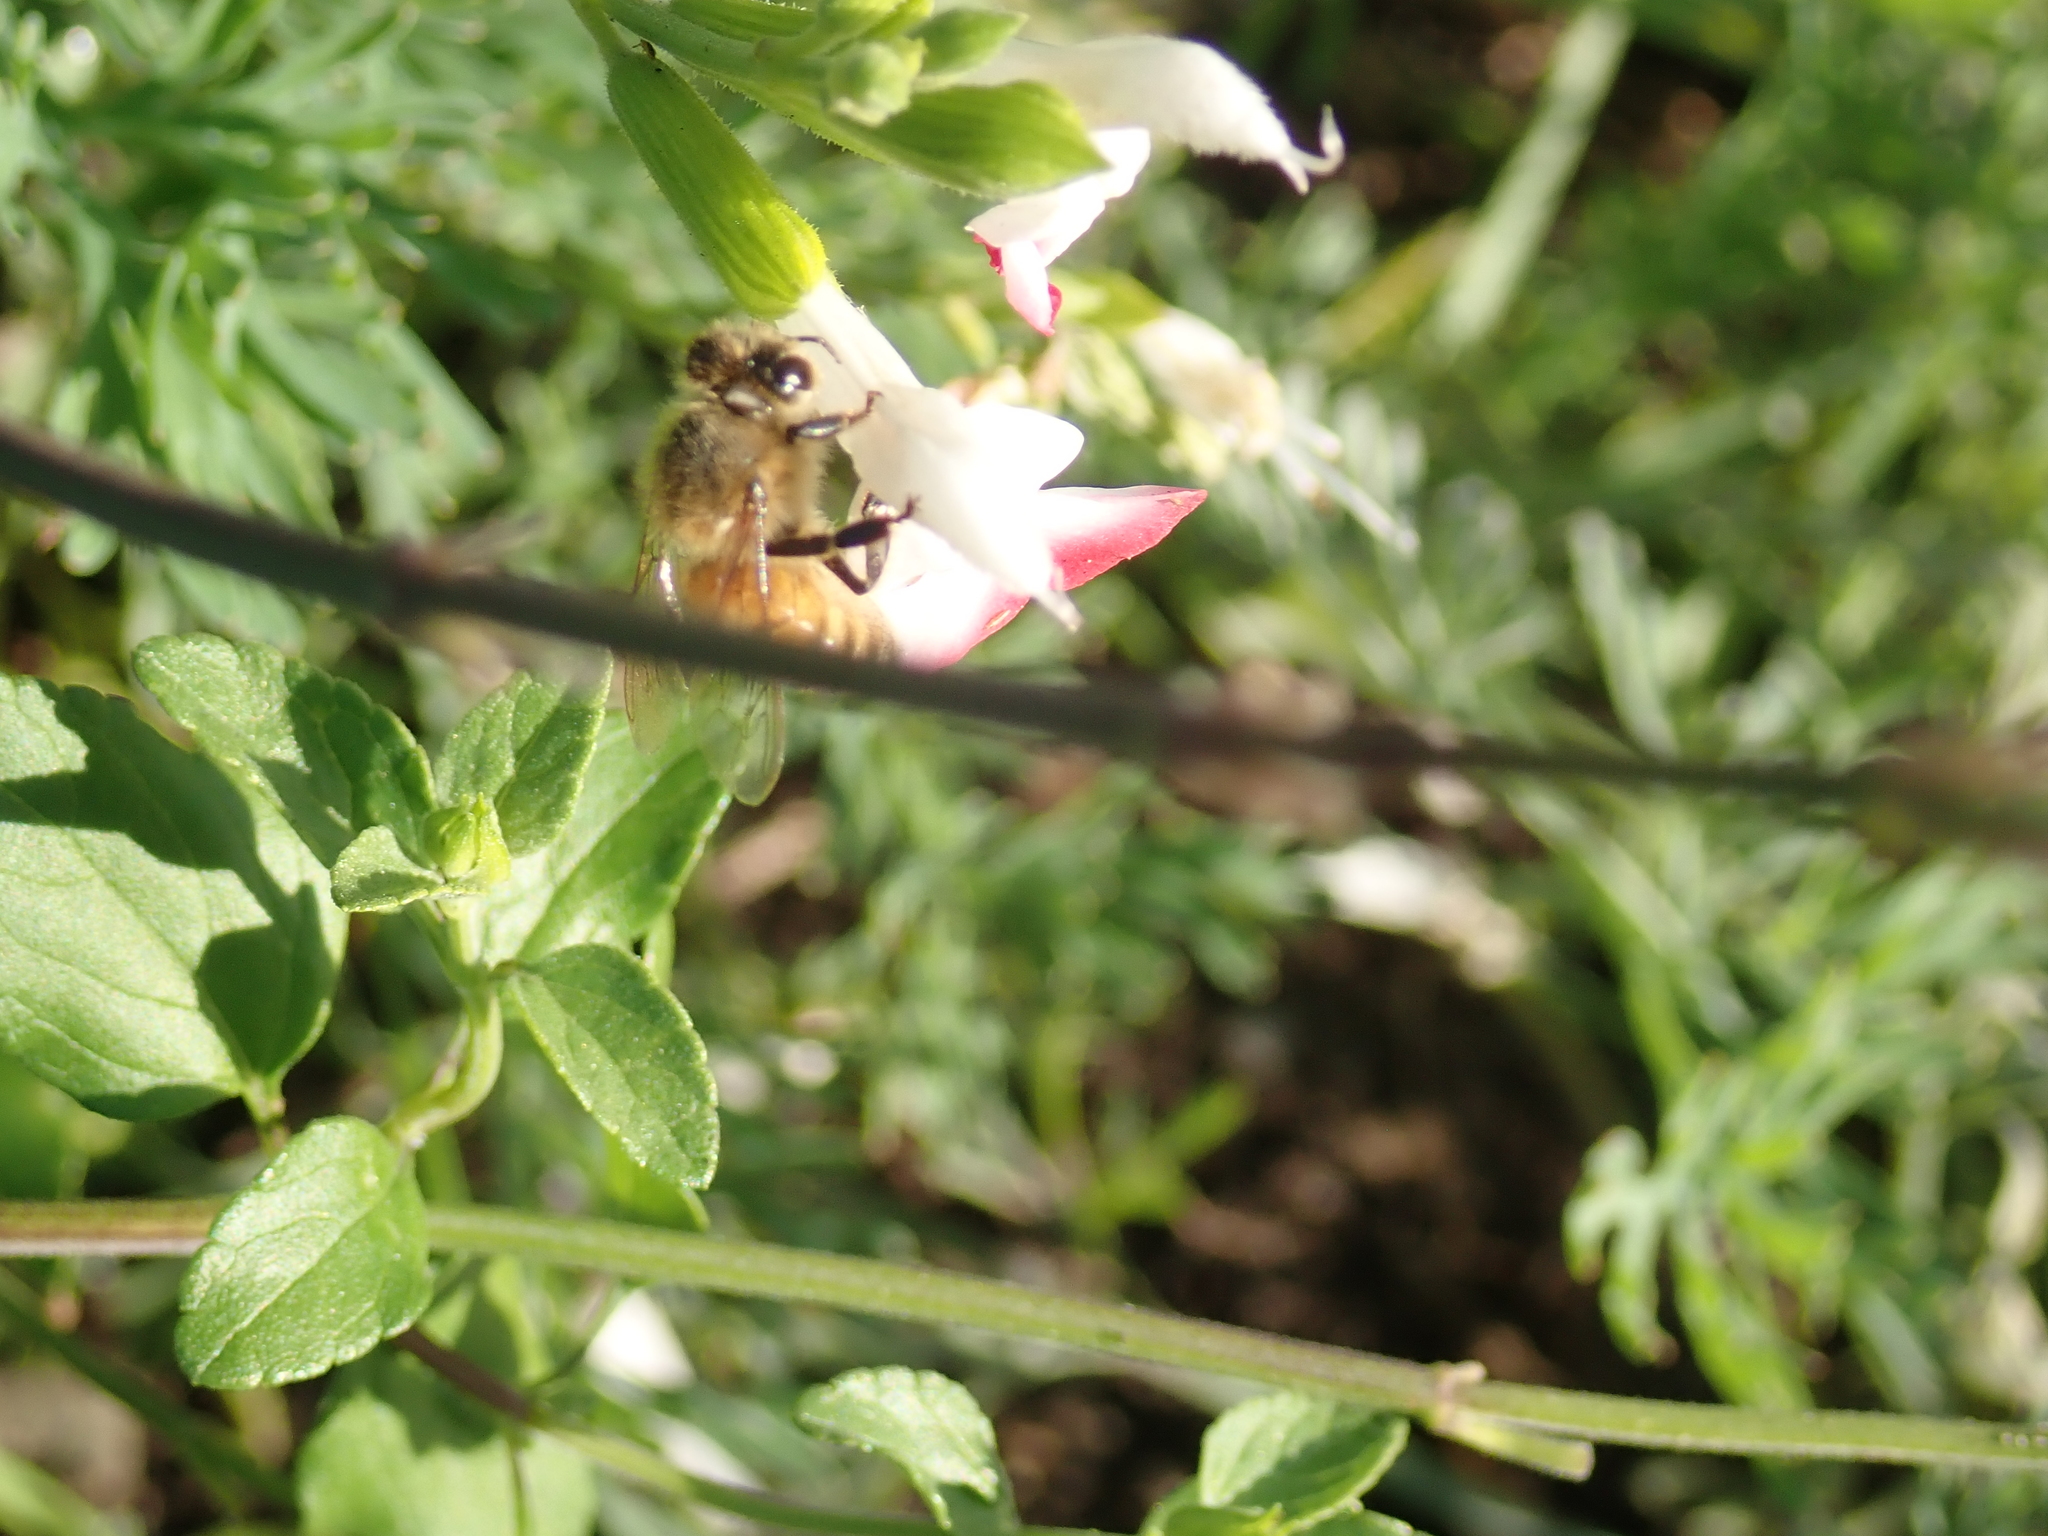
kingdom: Animalia
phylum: Arthropoda
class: Insecta
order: Hymenoptera
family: Apidae
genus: Apis
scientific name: Apis mellifera
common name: Honey bee
